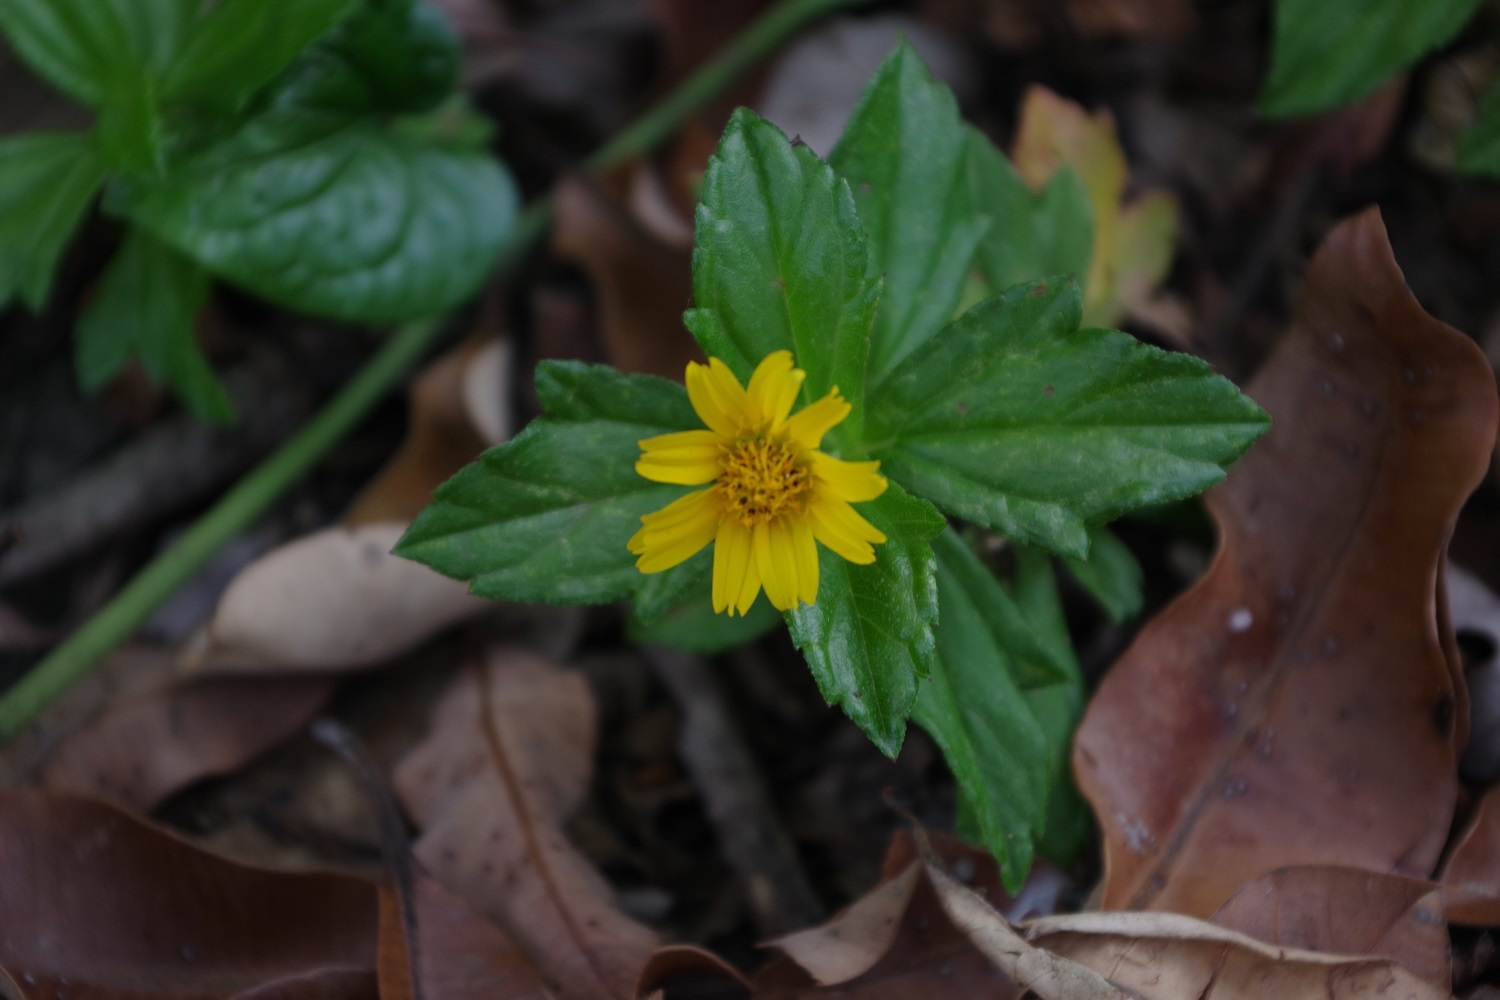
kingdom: Plantae
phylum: Tracheophyta
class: Magnoliopsida
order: Asterales
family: Asteraceae
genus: Sphagneticola
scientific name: Sphagneticola trilobata
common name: Bay biscayne creeping-oxeye
